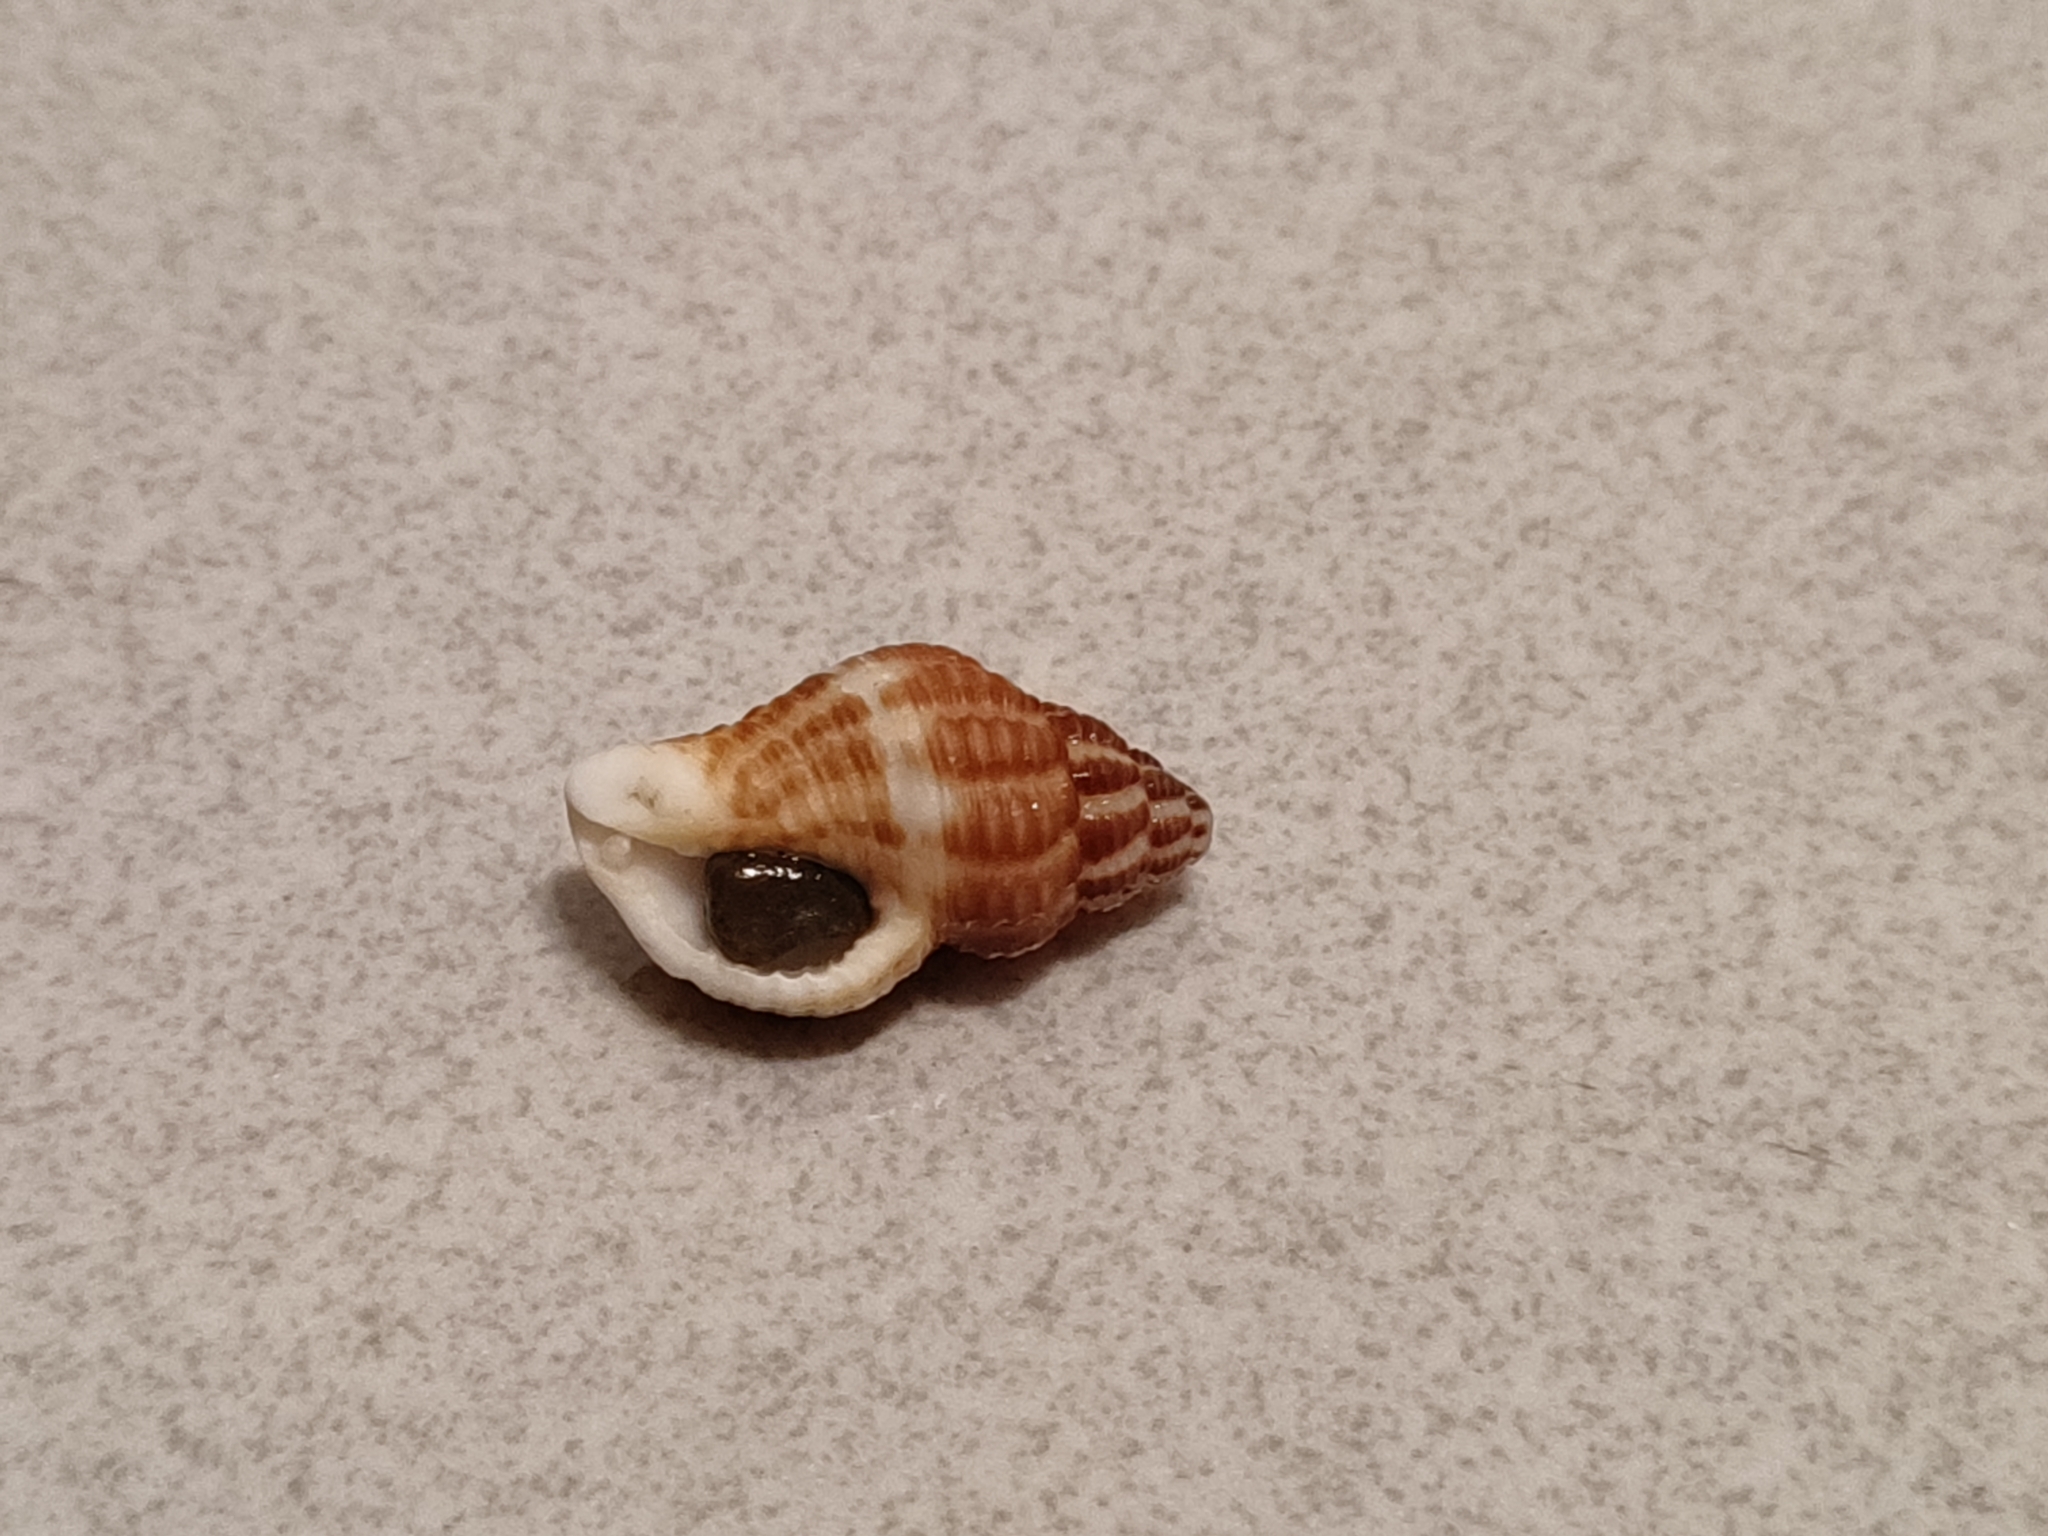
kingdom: Animalia
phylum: Mollusca
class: Gastropoda
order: Neogastropoda
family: Pisaniidae
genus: Pollia
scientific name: Pollia fumosa
